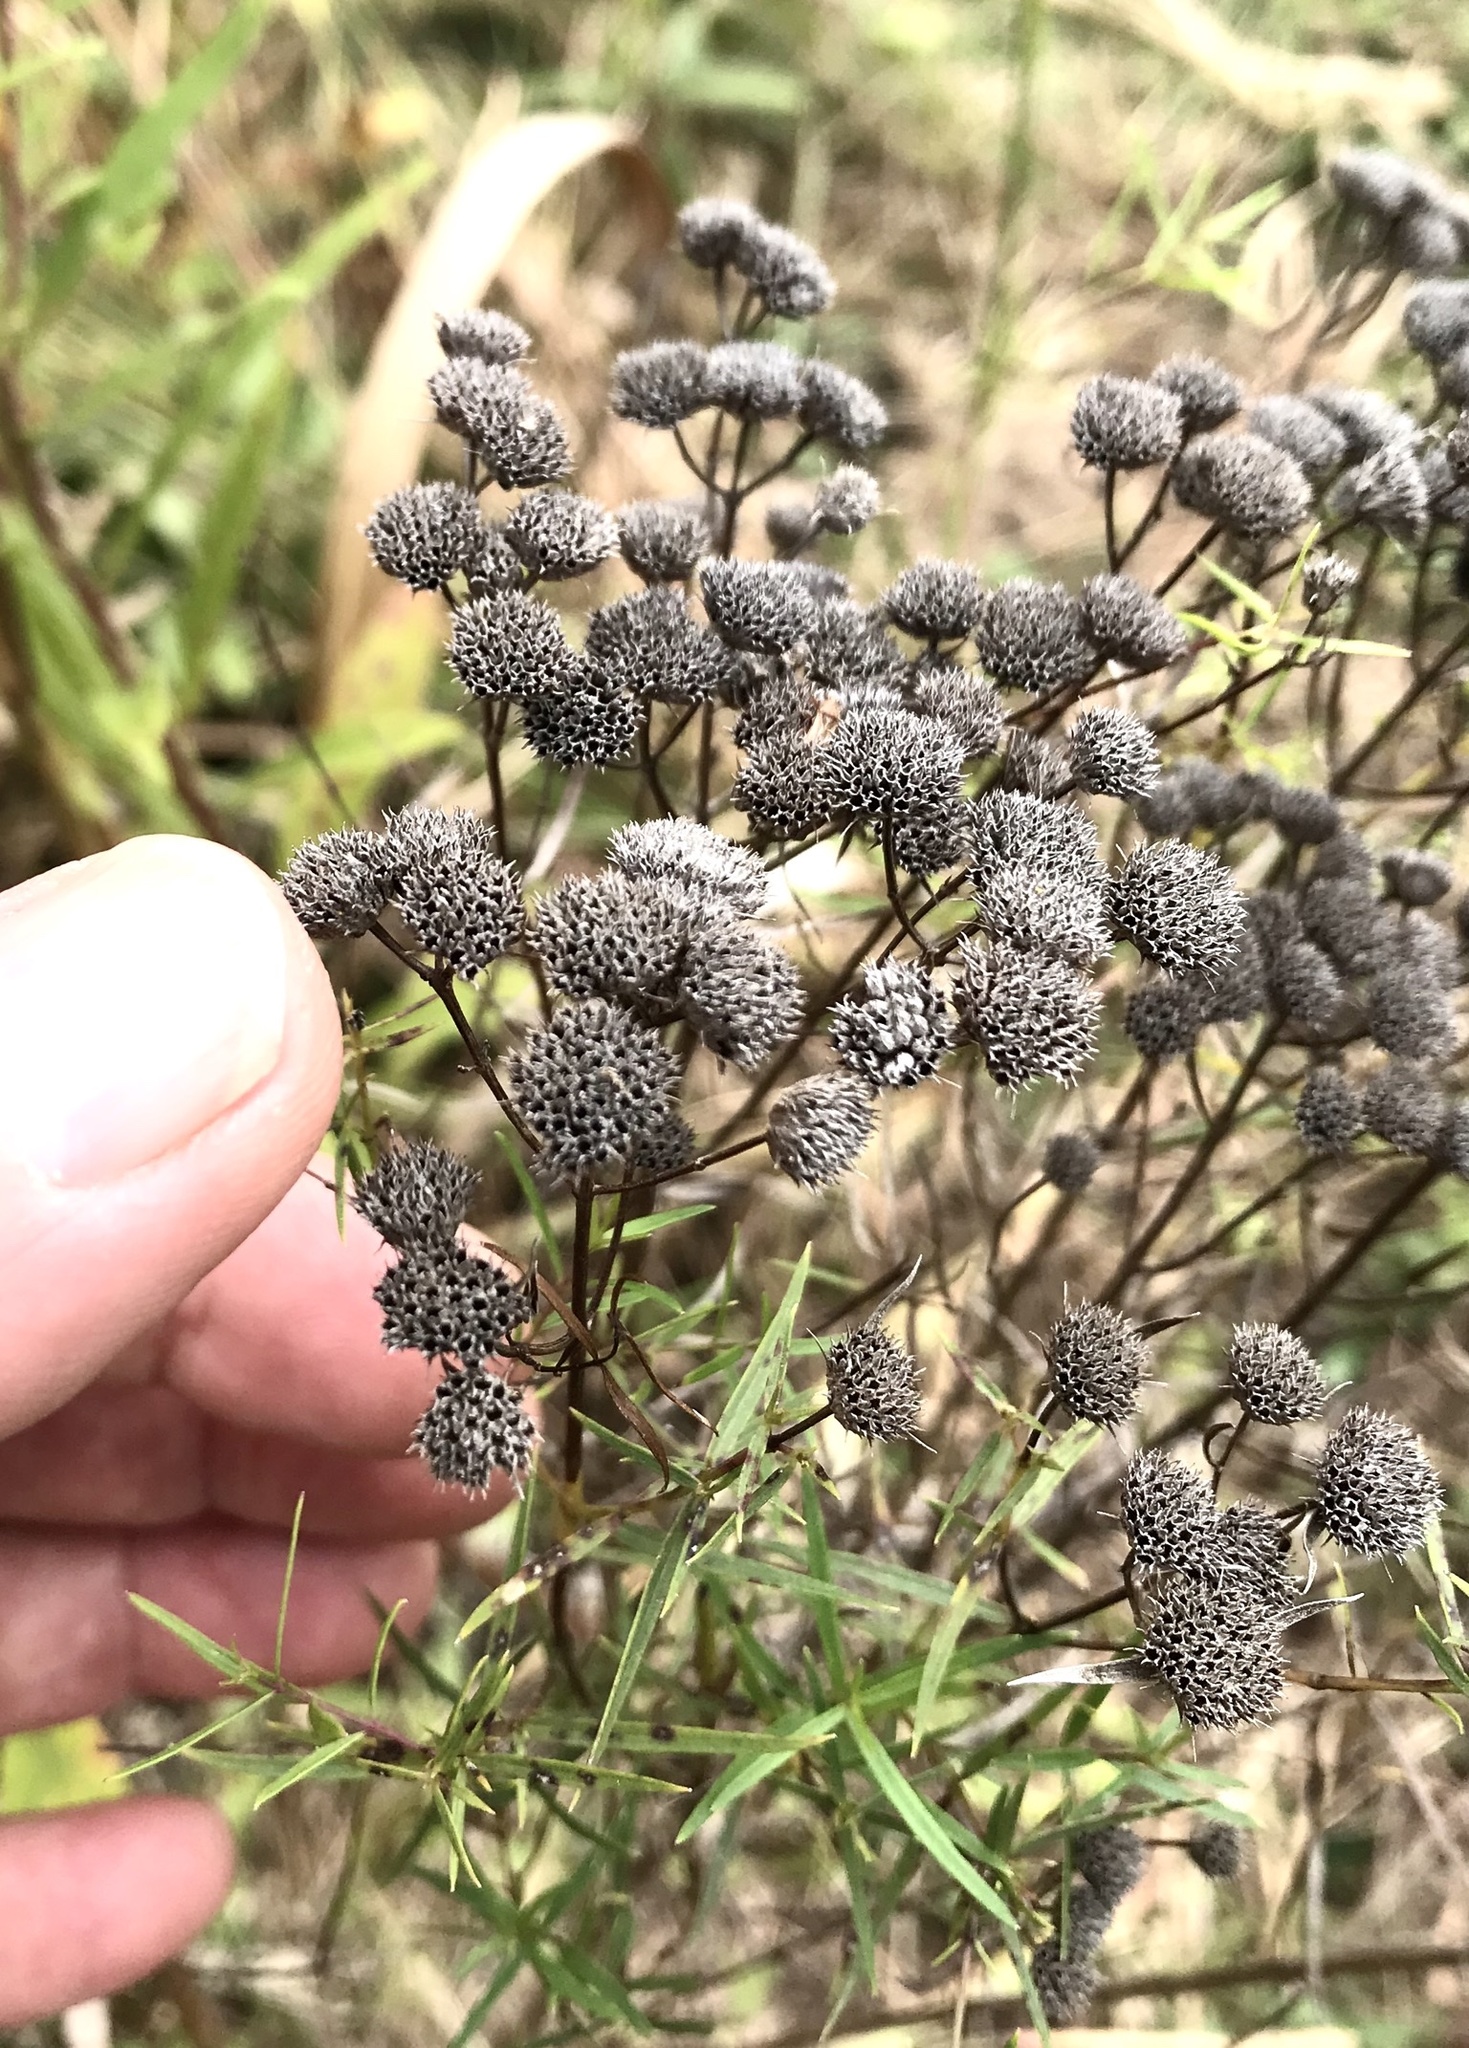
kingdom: Plantae
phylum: Tracheophyta
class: Magnoliopsida
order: Lamiales
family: Lamiaceae
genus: Pycnanthemum
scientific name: Pycnanthemum tenuifolium
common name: Narrow-leaf mountain-mint
